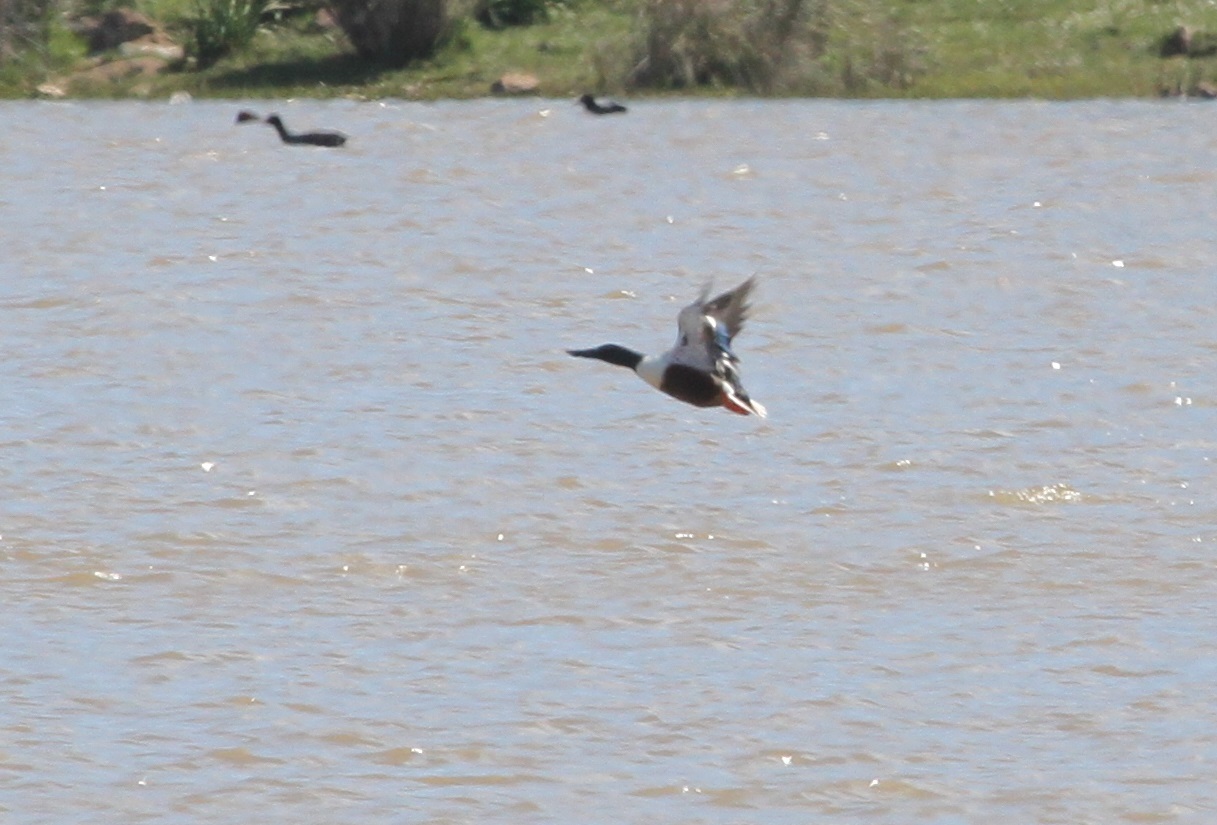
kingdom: Animalia
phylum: Chordata
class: Aves
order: Anseriformes
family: Anatidae
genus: Spatula
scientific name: Spatula clypeata
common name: Northern shoveler
